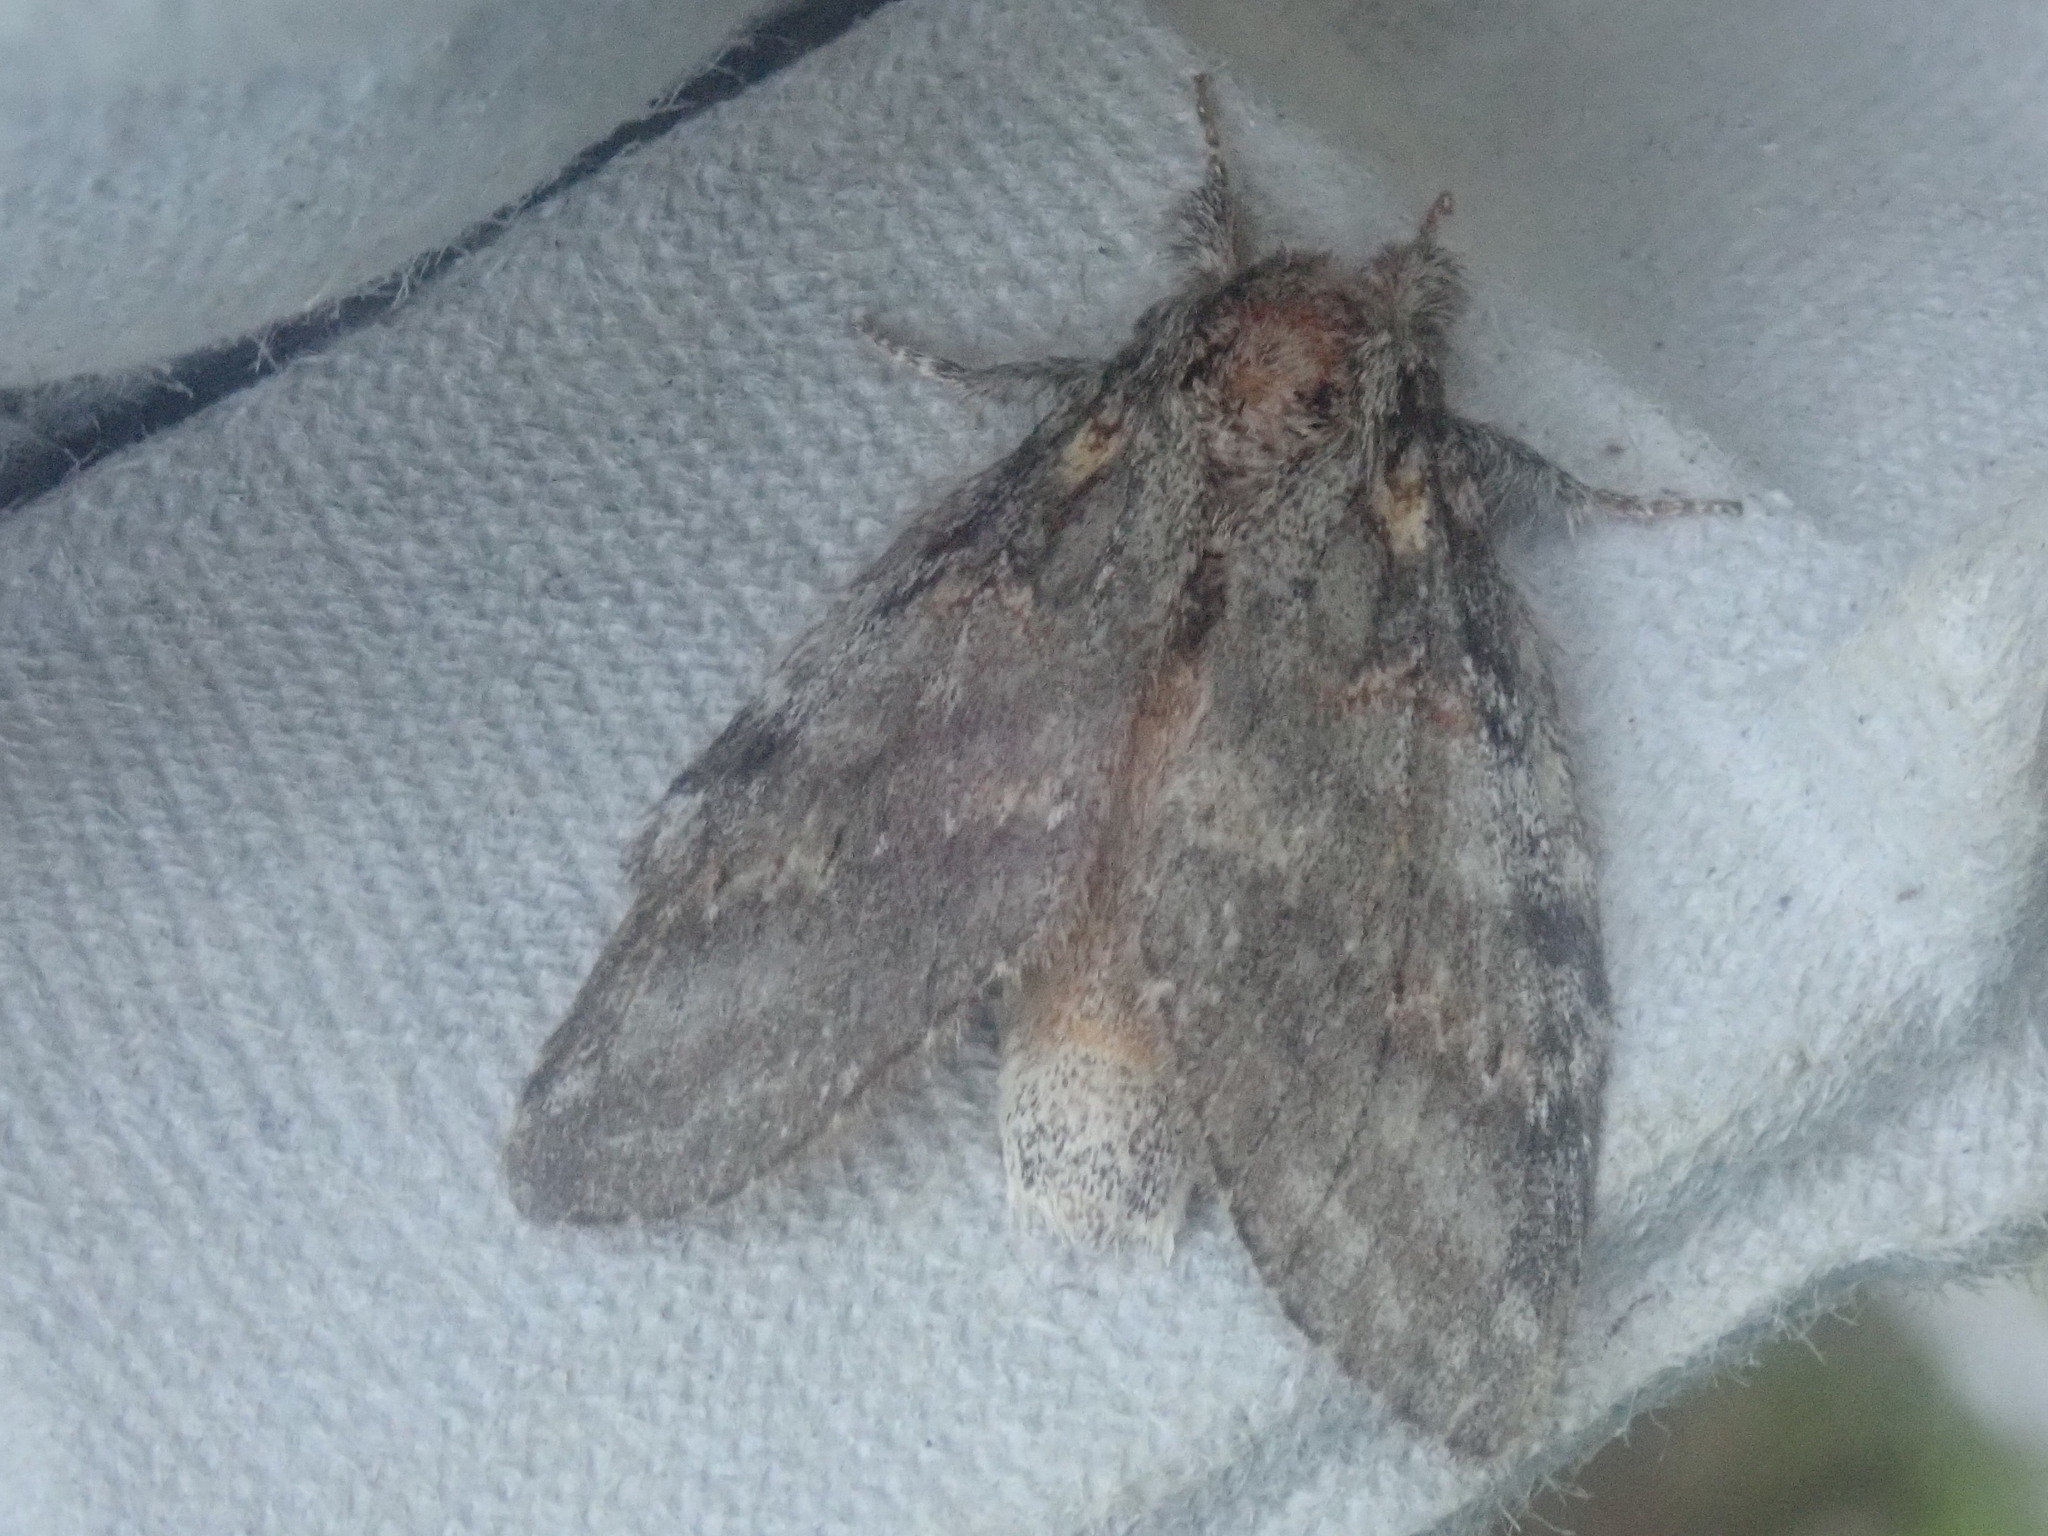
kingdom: Animalia
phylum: Arthropoda
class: Insecta
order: Lepidoptera
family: Notodontidae
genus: Peridea
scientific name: Peridea angulosa
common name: Angulose prominent
